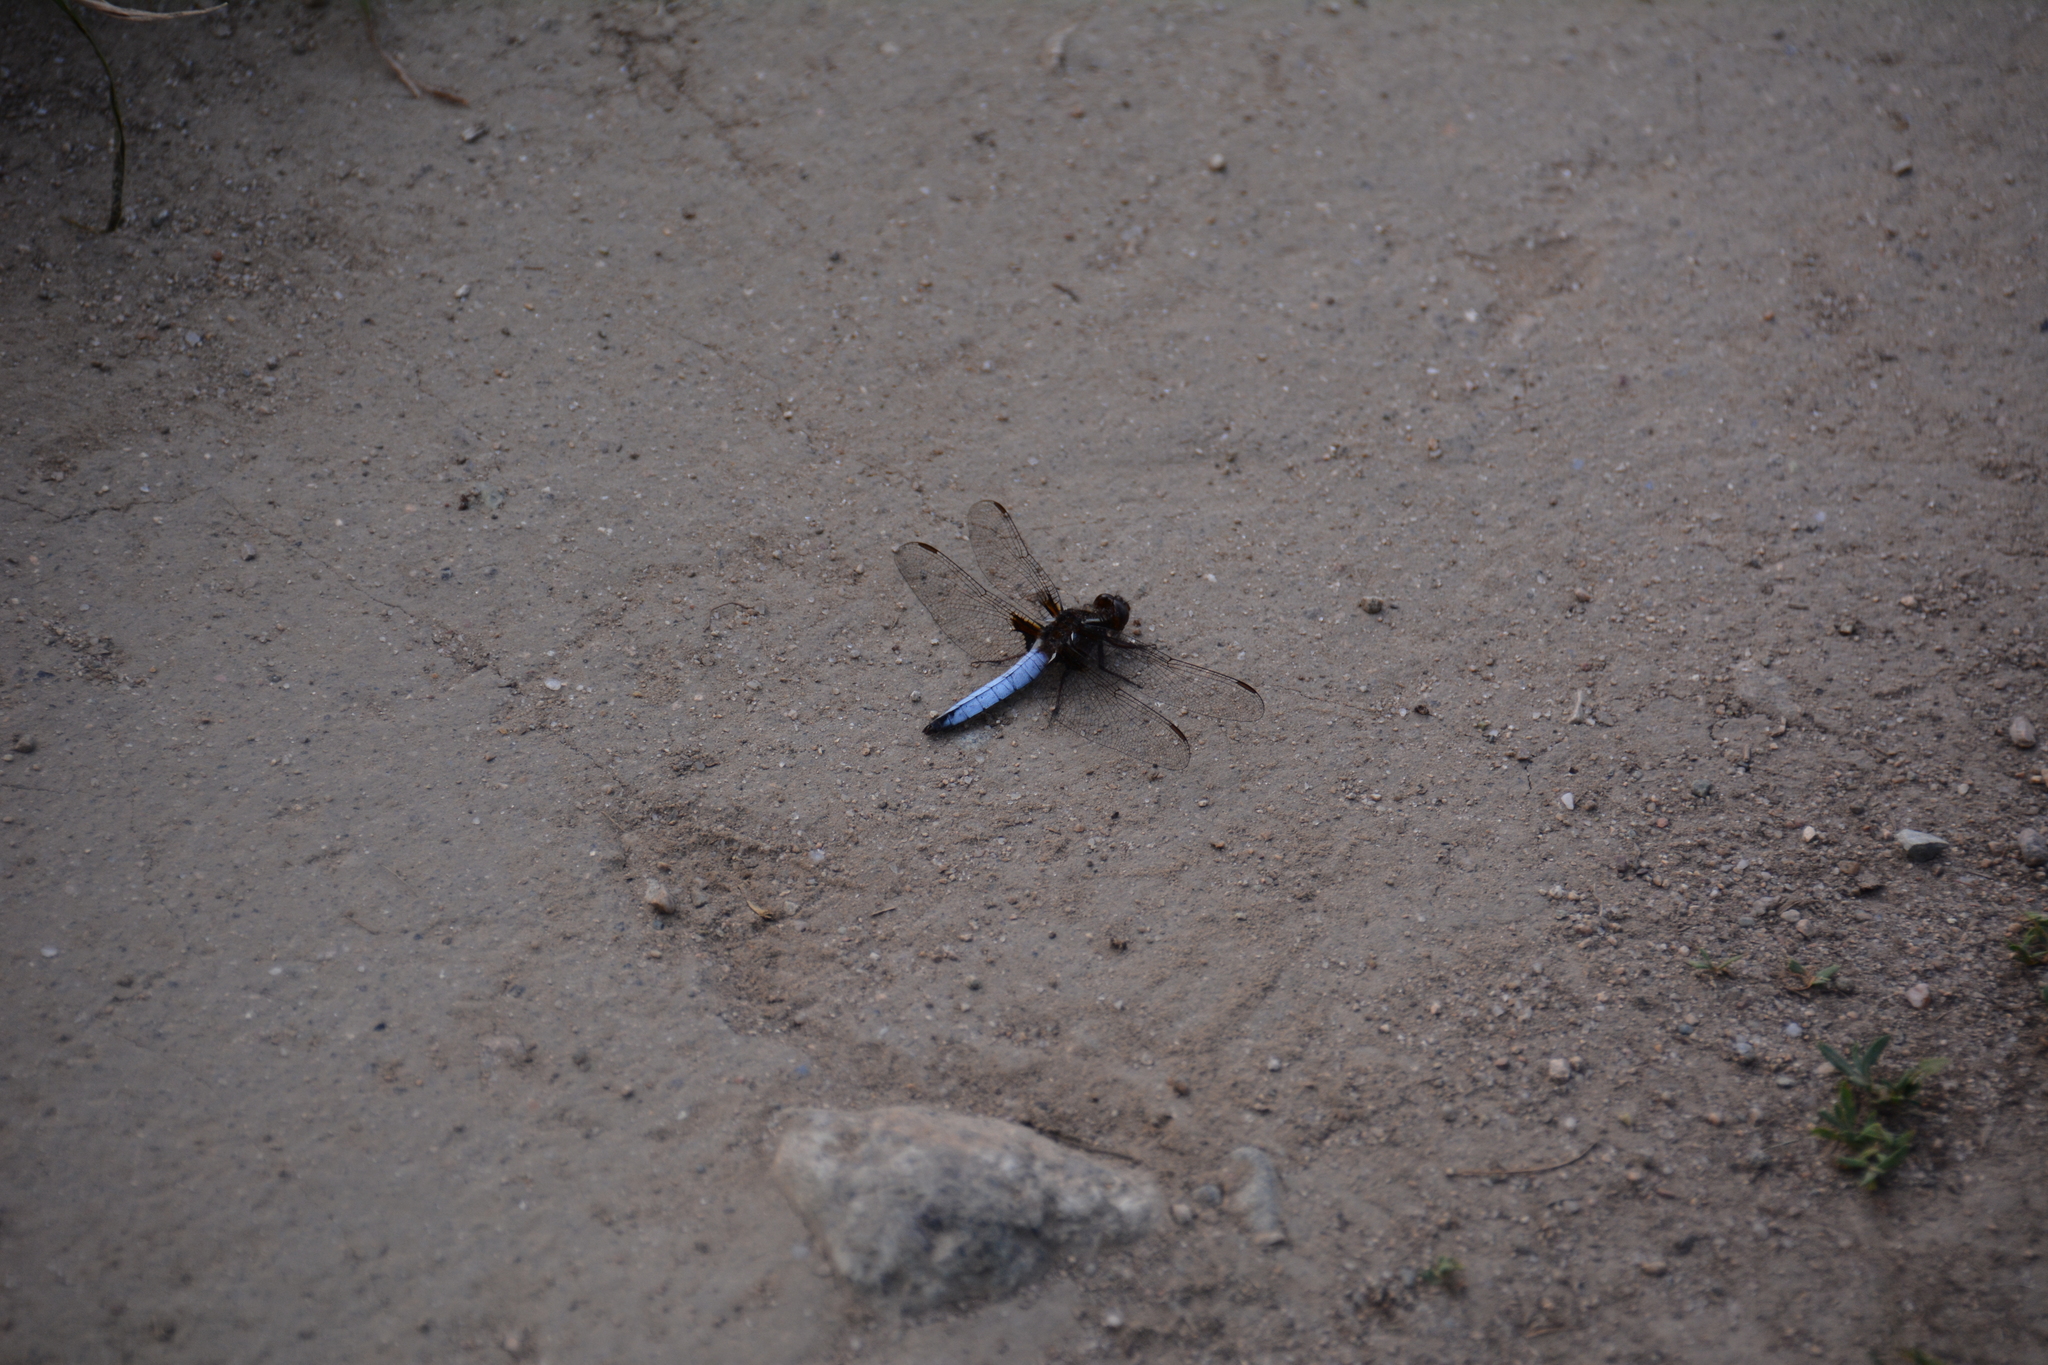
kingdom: Animalia
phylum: Arthropoda
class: Insecta
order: Odonata
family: Libellulidae
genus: Ladona
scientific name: Ladona exusta
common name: Libellule embrasée
